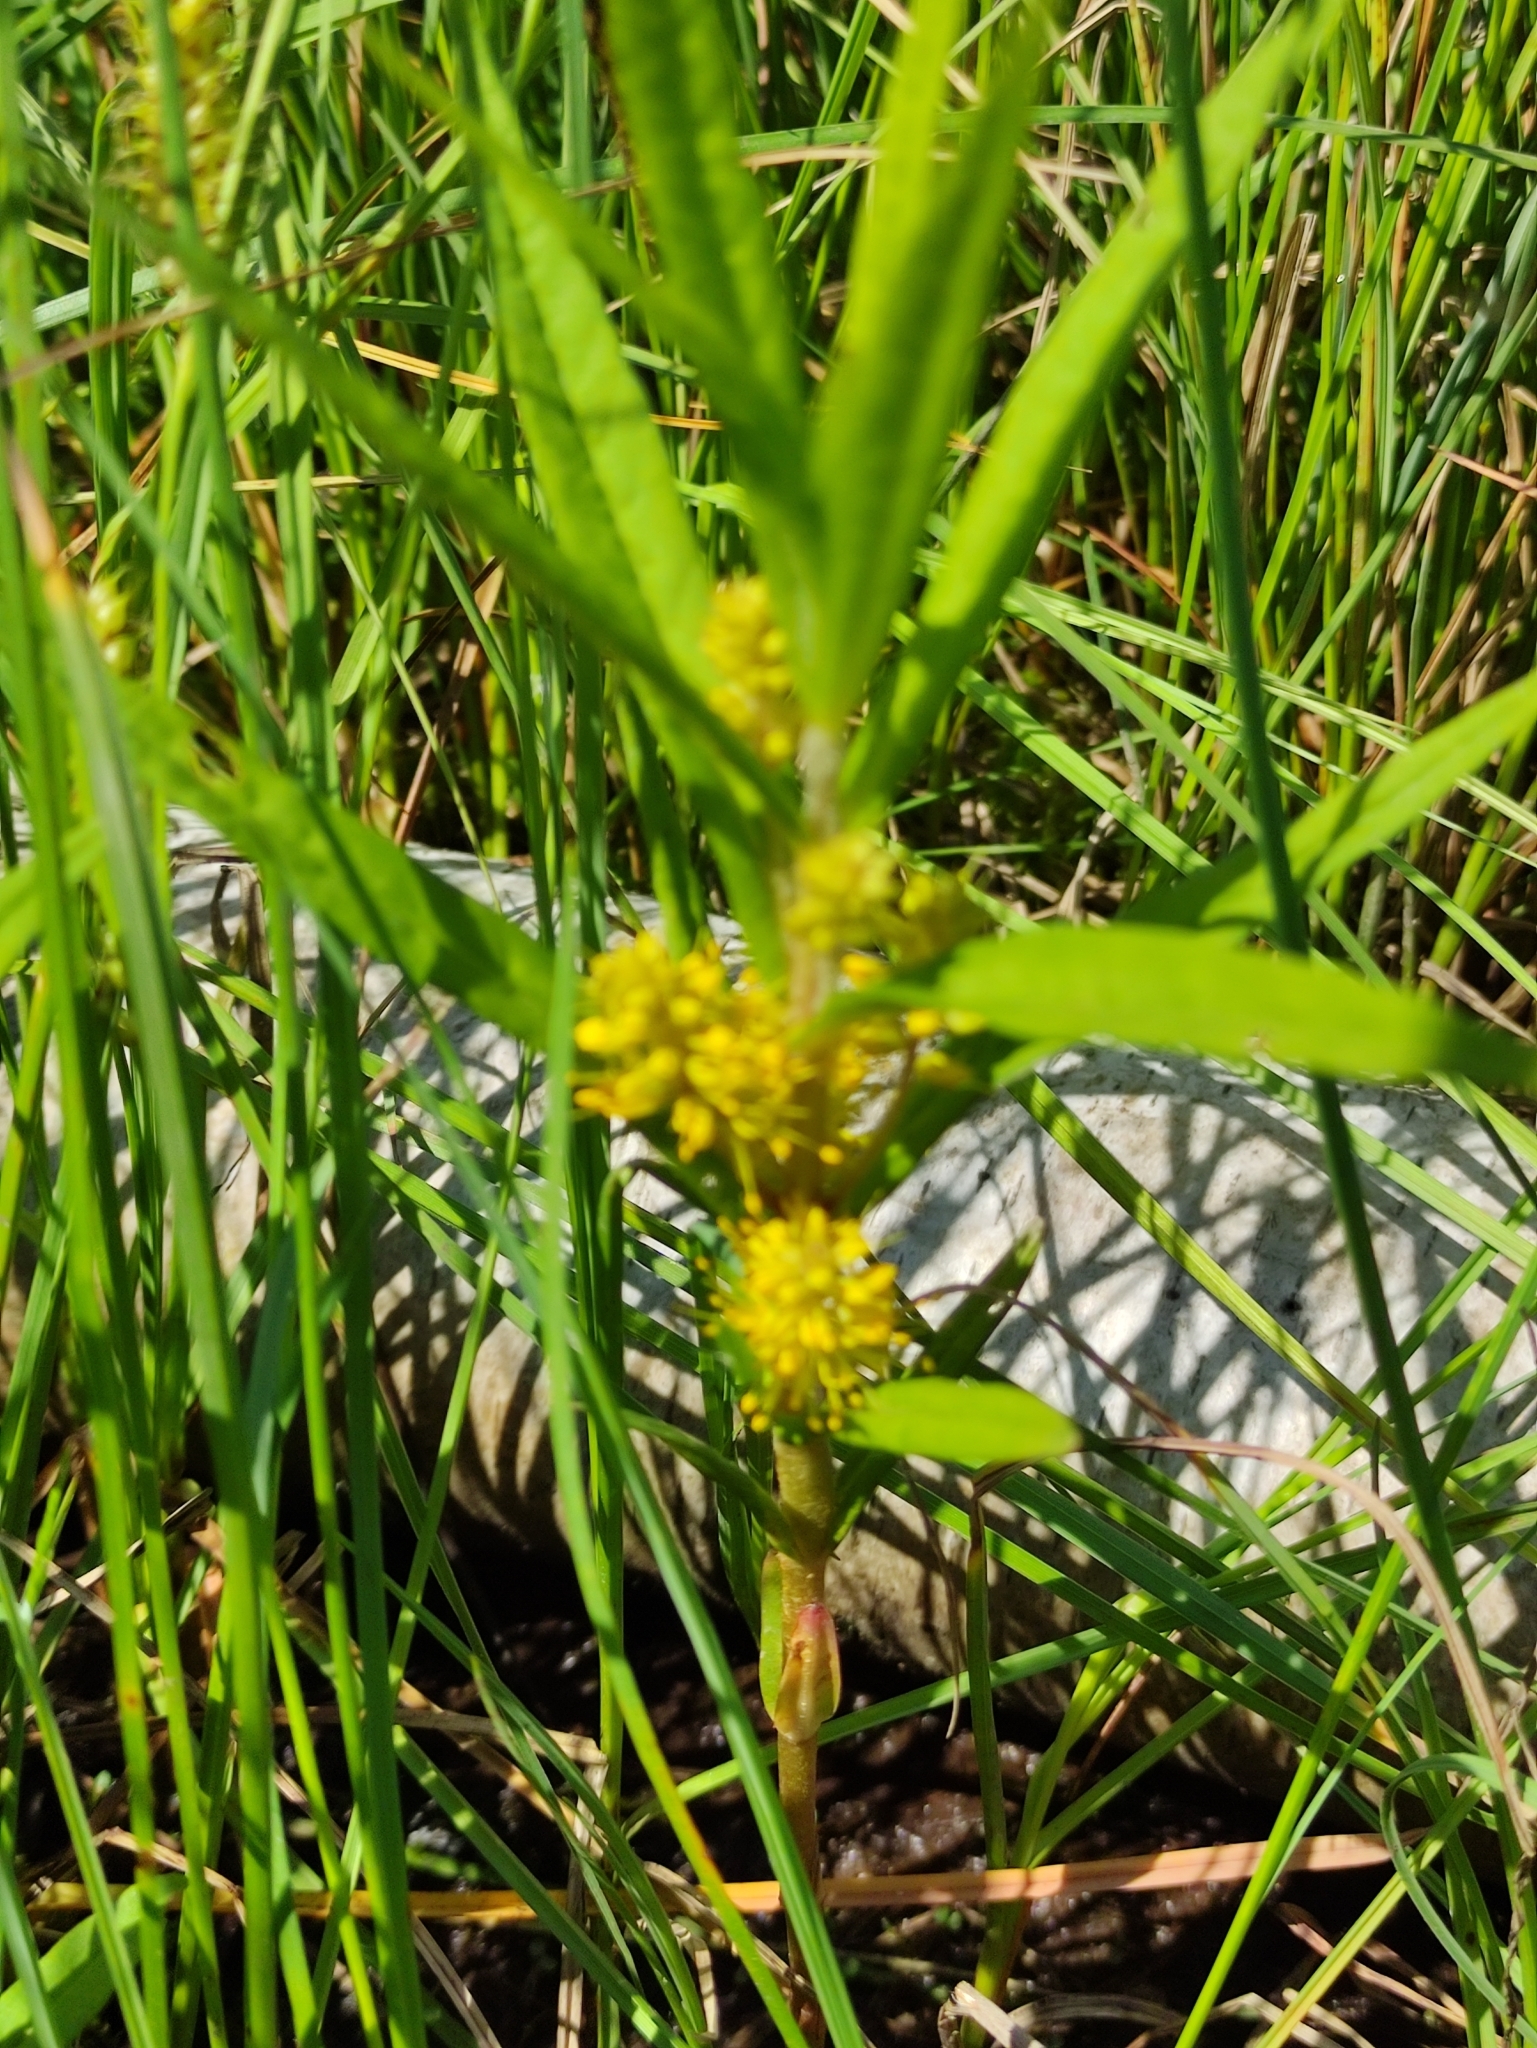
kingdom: Plantae
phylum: Tracheophyta
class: Magnoliopsida
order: Ericales
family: Primulaceae
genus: Lysimachia
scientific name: Lysimachia thyrsiflora
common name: Tufted loosestrife
